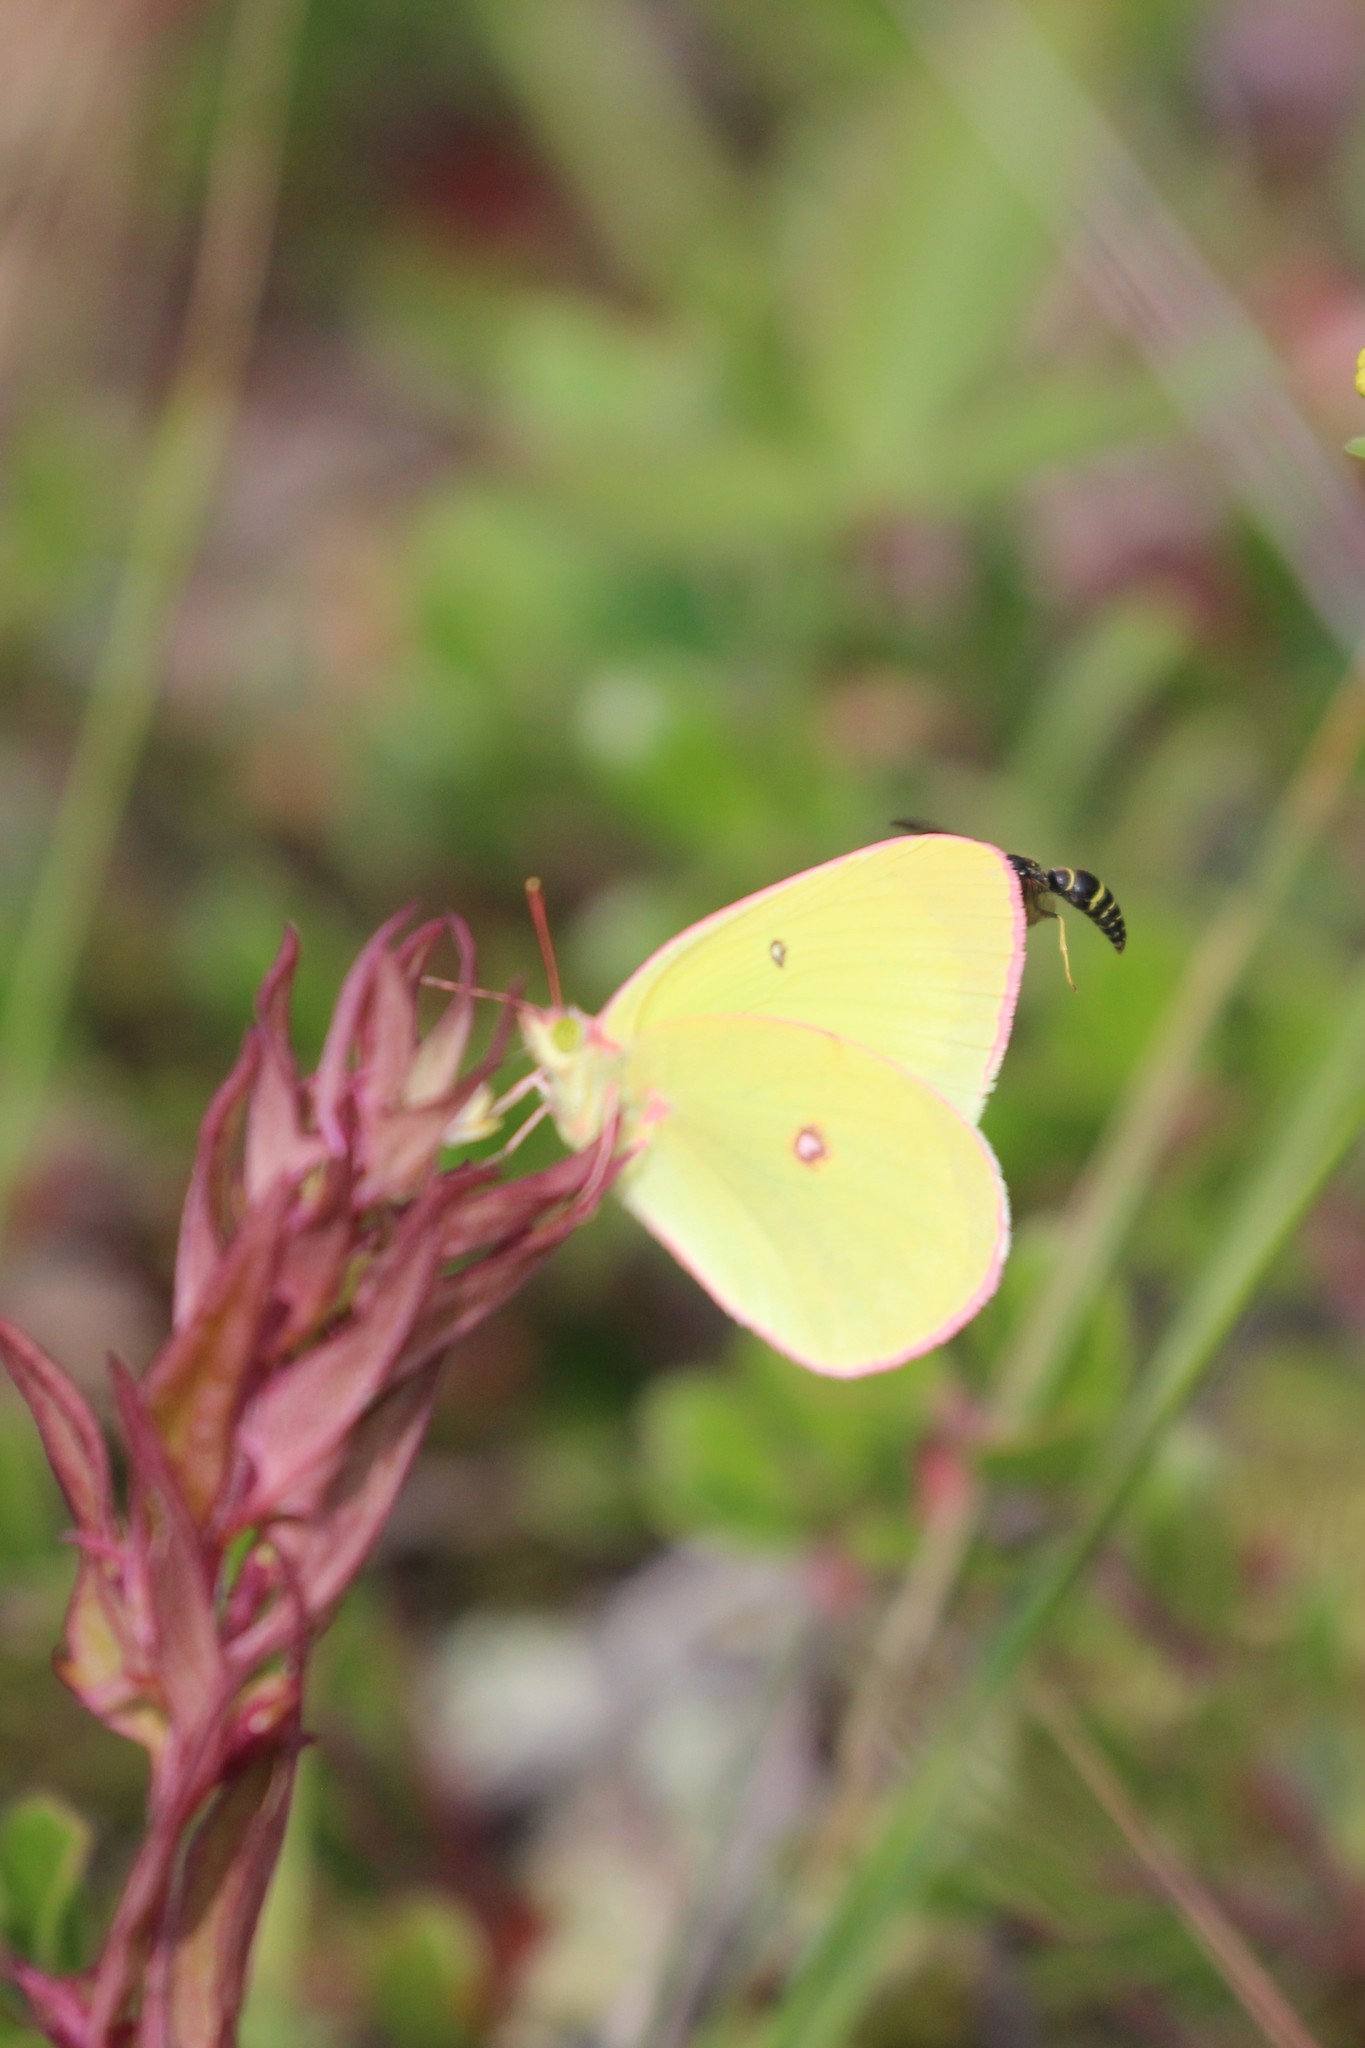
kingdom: Animalia
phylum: Arthropoda
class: Insecta
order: Lepidoptera
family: Pieridae
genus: Colias
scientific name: Colias interior
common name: Pink-edged sulphur
